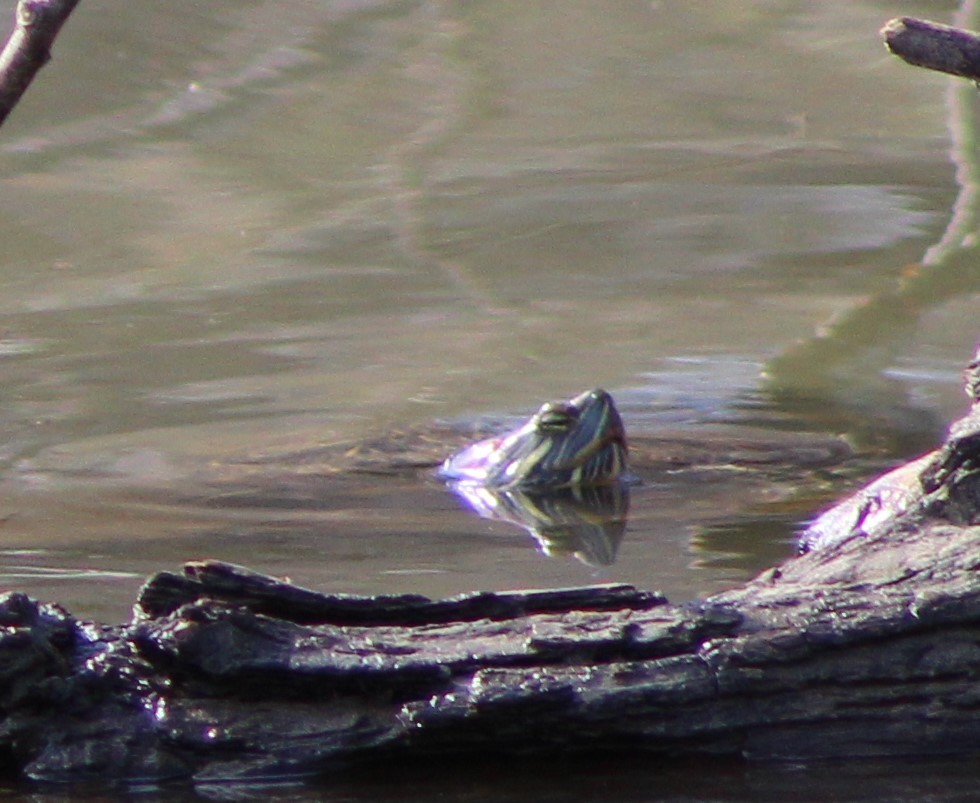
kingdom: Animalia
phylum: Chordata
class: Testudines
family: Emydidae
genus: Trachemys
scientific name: Trachemys scripta
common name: Slider
